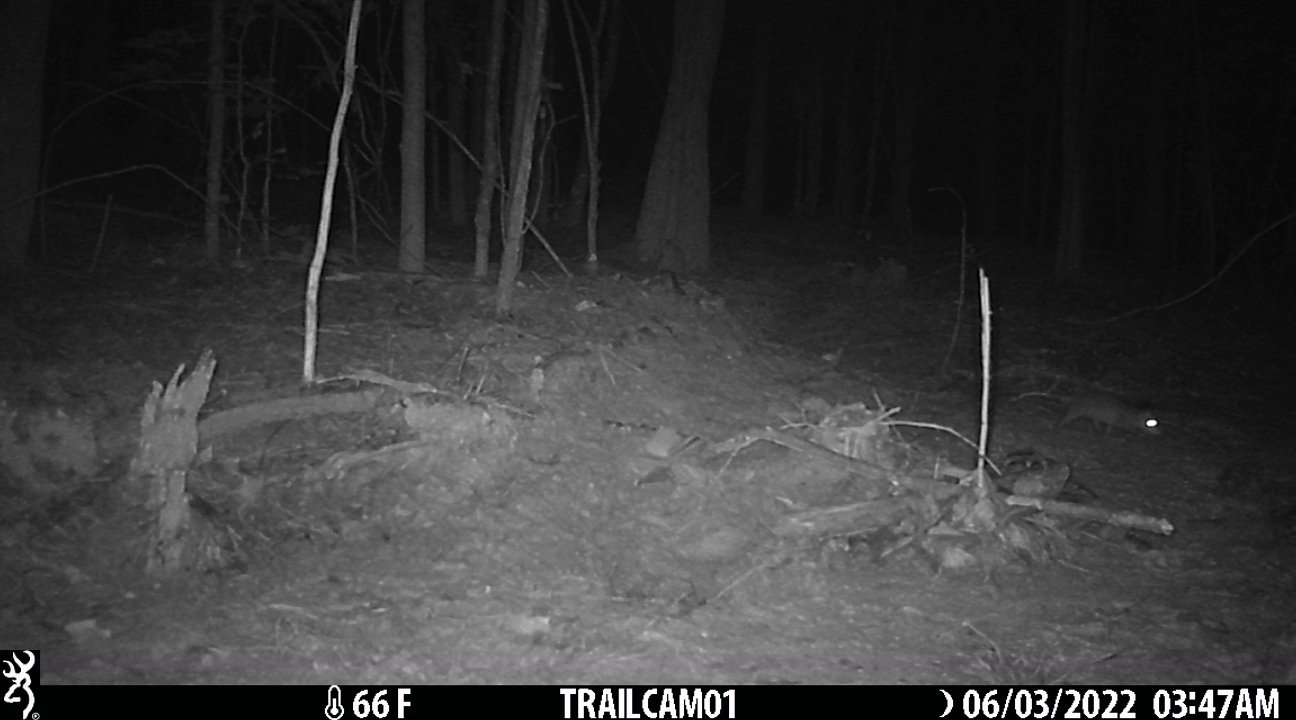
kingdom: Animalia
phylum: Chordata
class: Mammalia
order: Didelphimorphia
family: Didelphidae
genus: Didelphis
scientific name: Didelphis virginiana
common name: Virginia opossum
